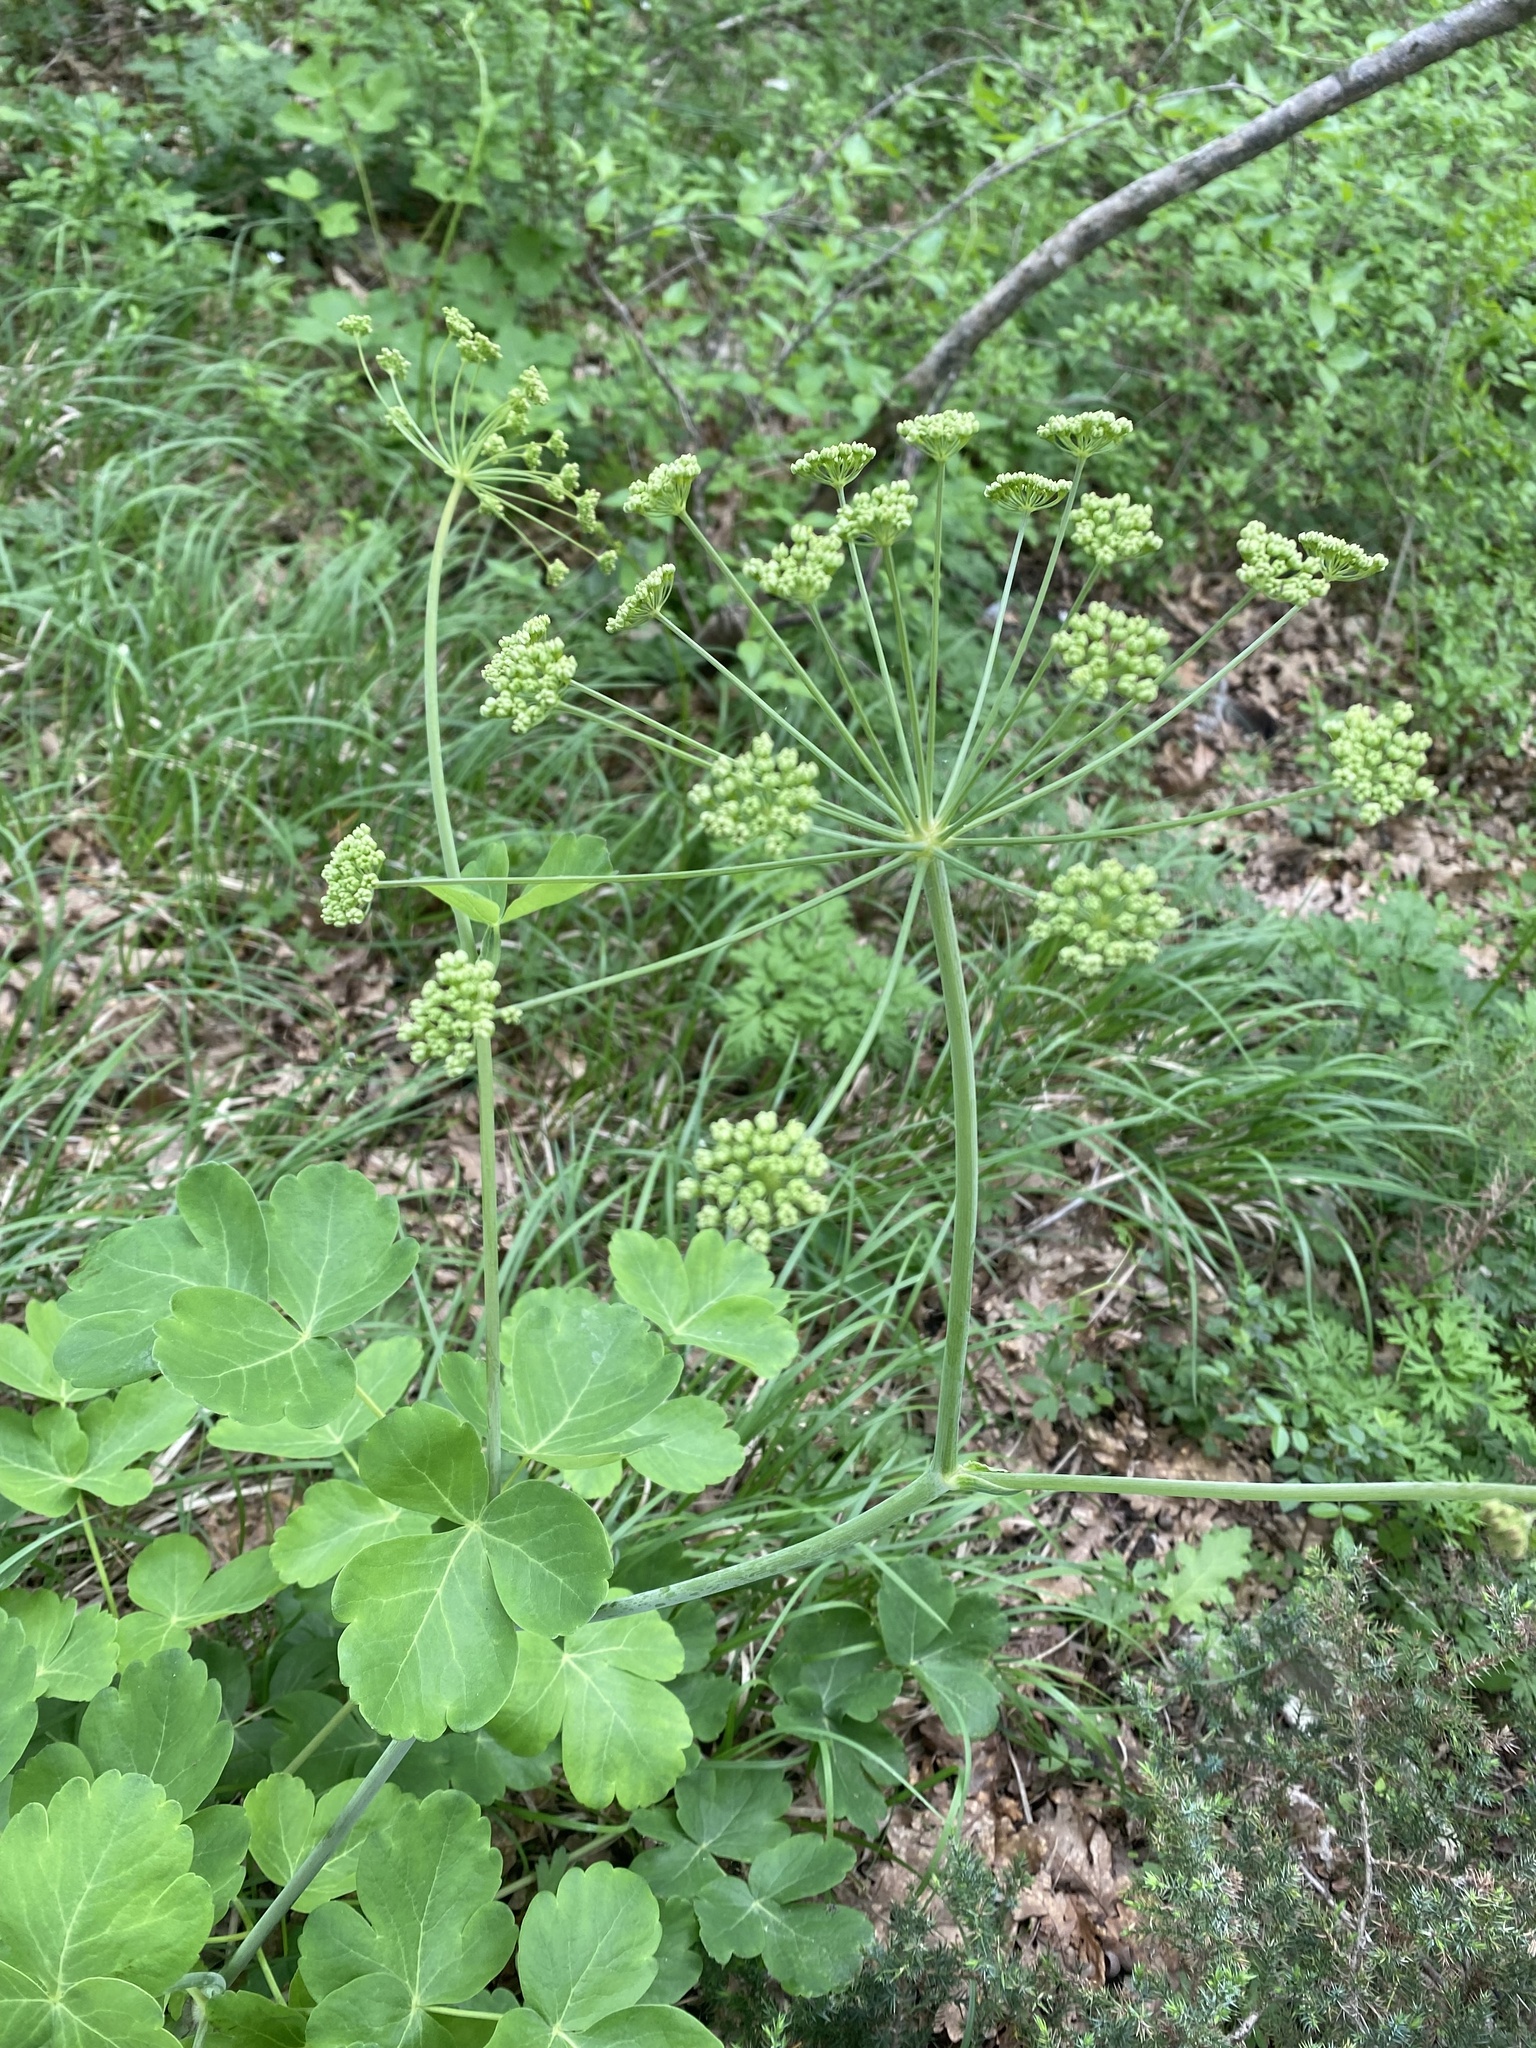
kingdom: Plantae
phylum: Tracheophyta
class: Magnoliopsida
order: Apiales
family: Apiaceae
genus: Laser
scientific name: Laser trilobum
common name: Laser
